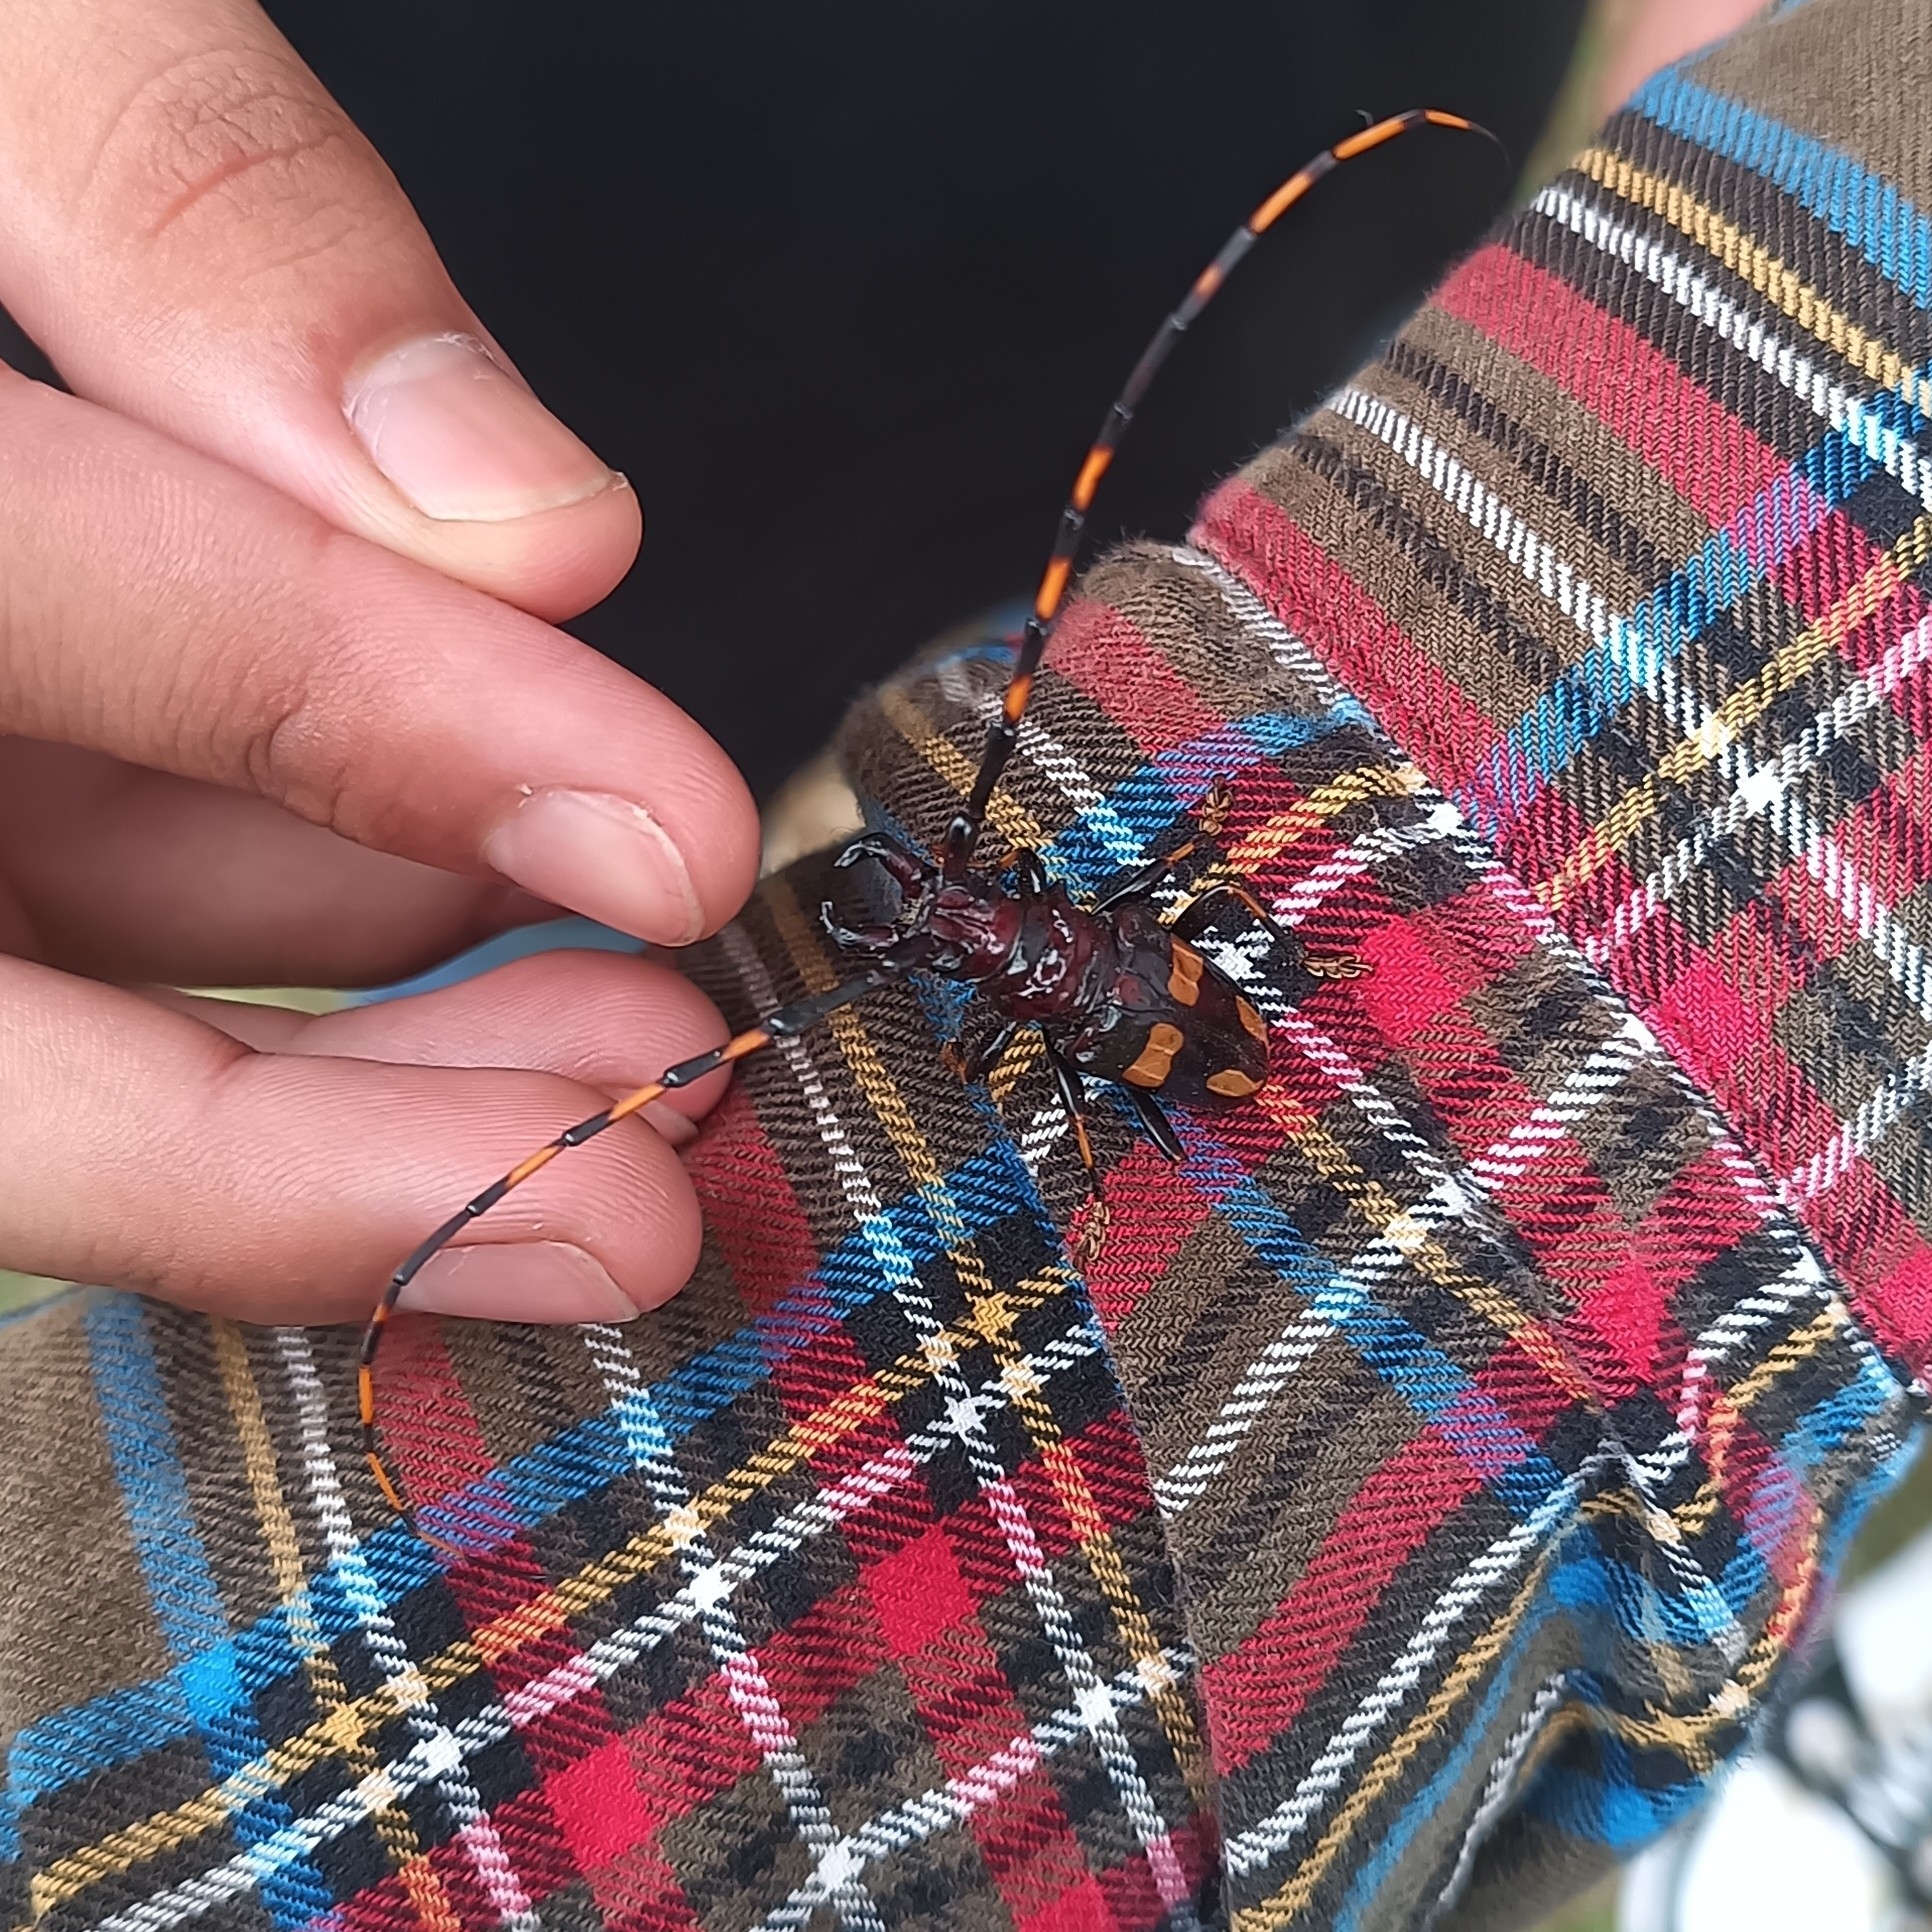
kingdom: Animalia
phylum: Arthropoda
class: Insecta
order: Coleoptera
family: Cerambycidae
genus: Trachyderes
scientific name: Trachyderes mandibularis
